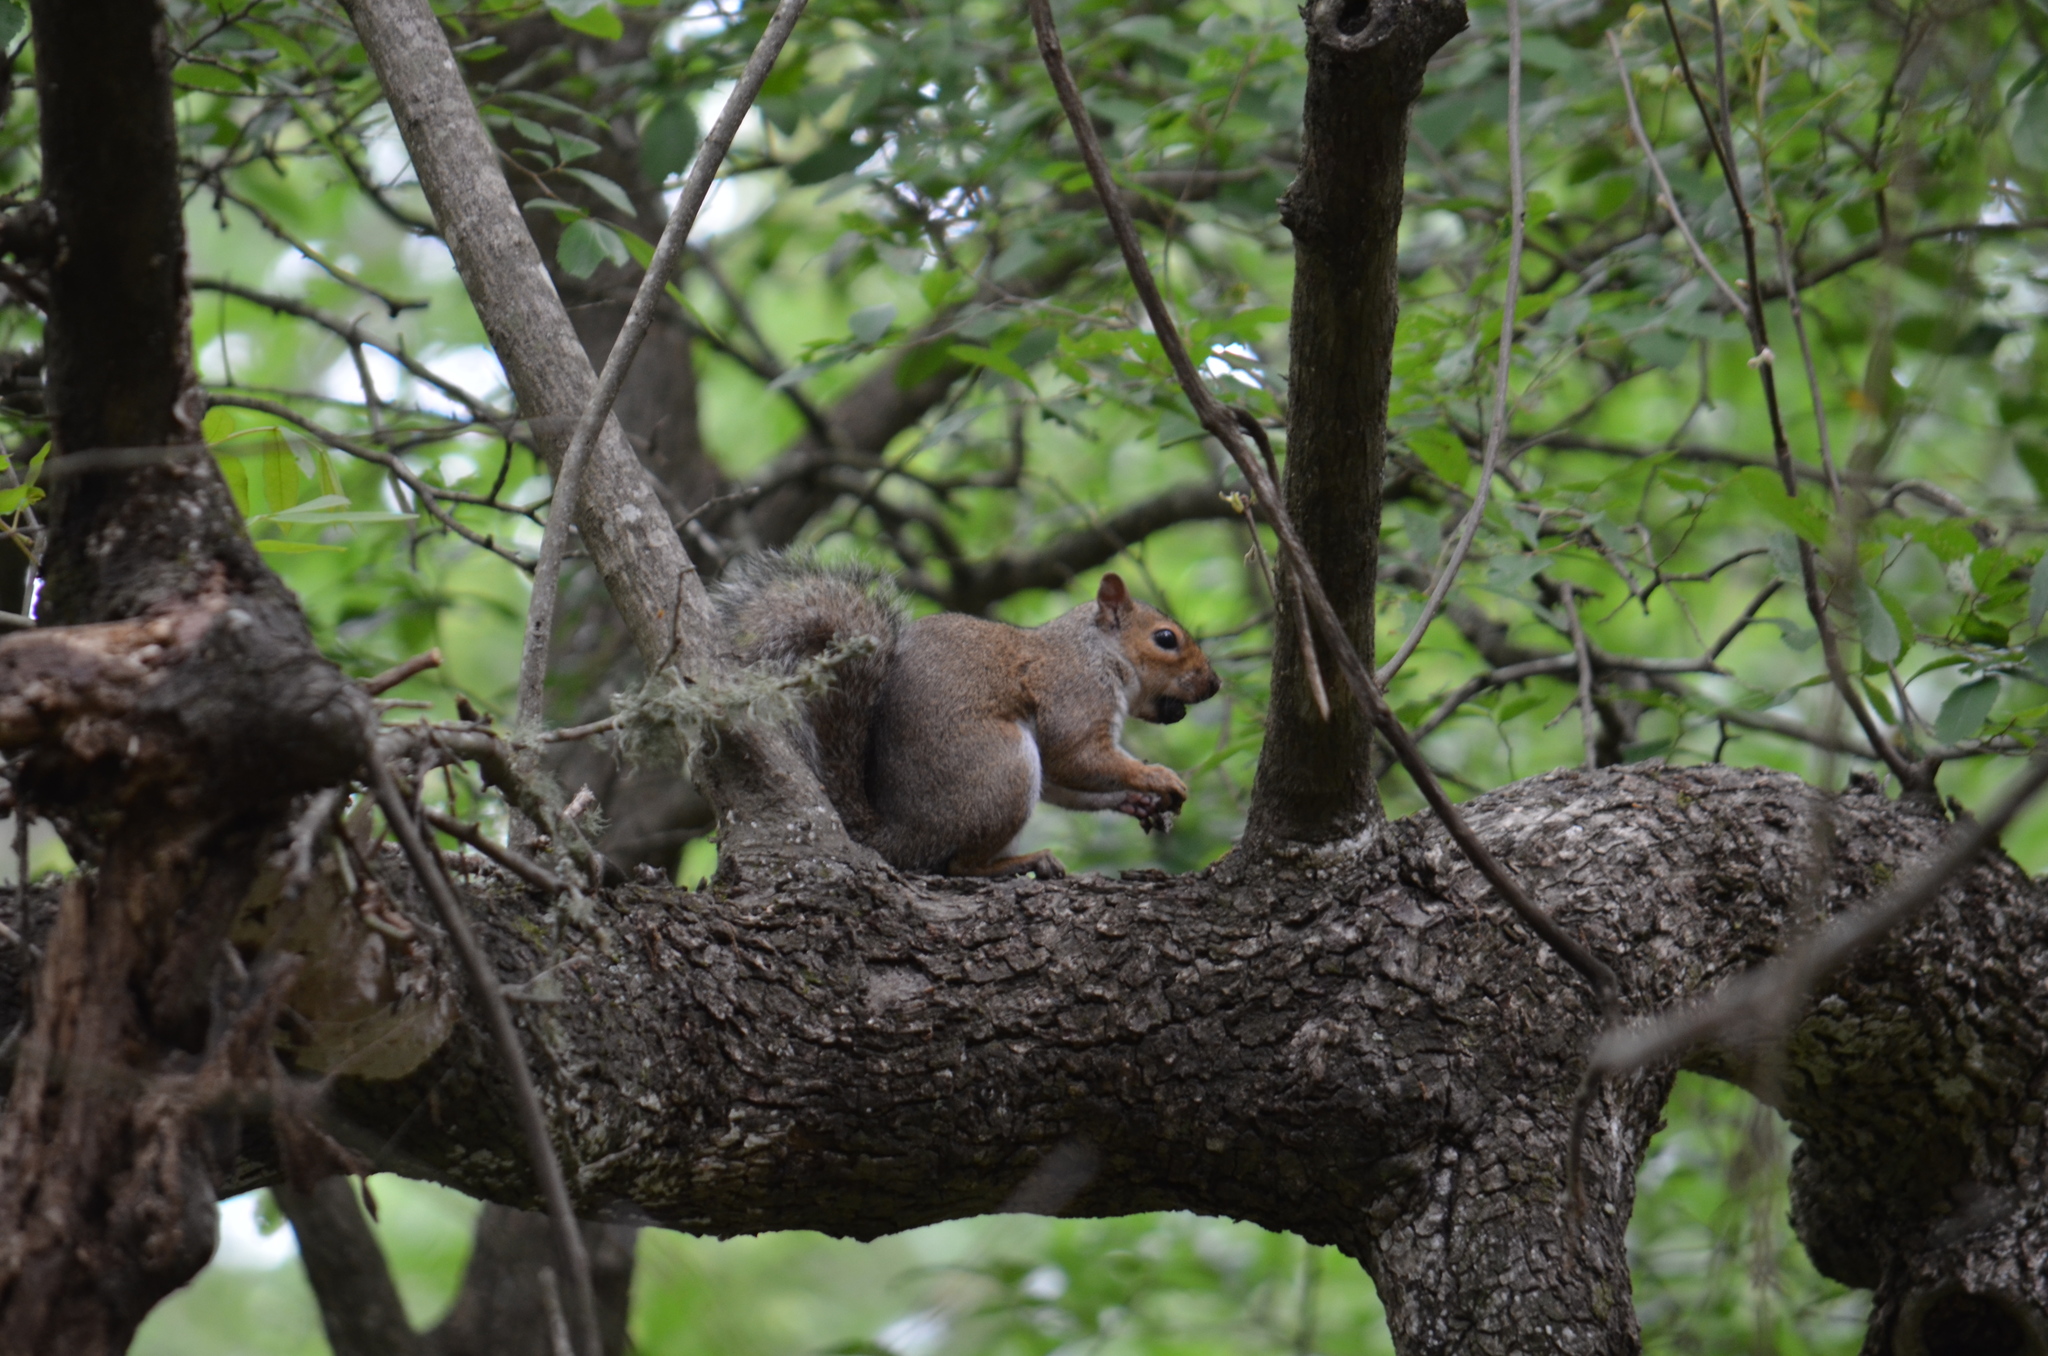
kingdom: Animalia
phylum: Chordata
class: Mammalia
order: Rodentia
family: Sciuridae
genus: Sciurus
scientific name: Sciurus carolinensis
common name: Eastern gray squirrel
